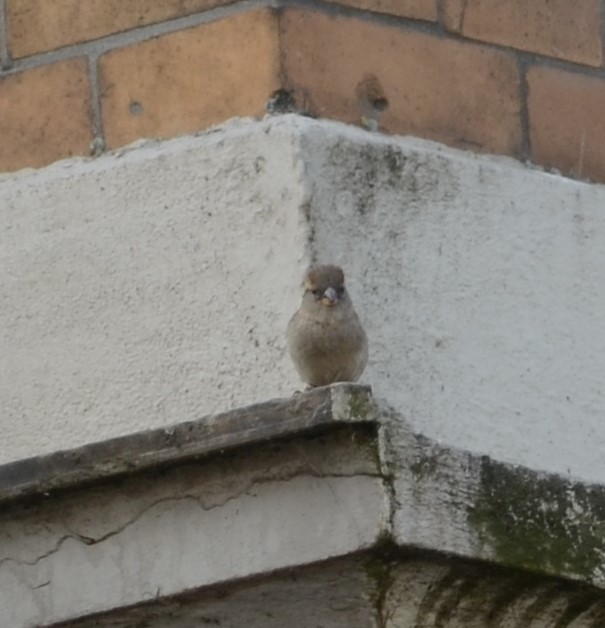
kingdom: Animalia
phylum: Chordata
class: Aves
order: Passeriformes
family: Passeridae
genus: Passer
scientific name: Passer domesticus
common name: House sparrow
